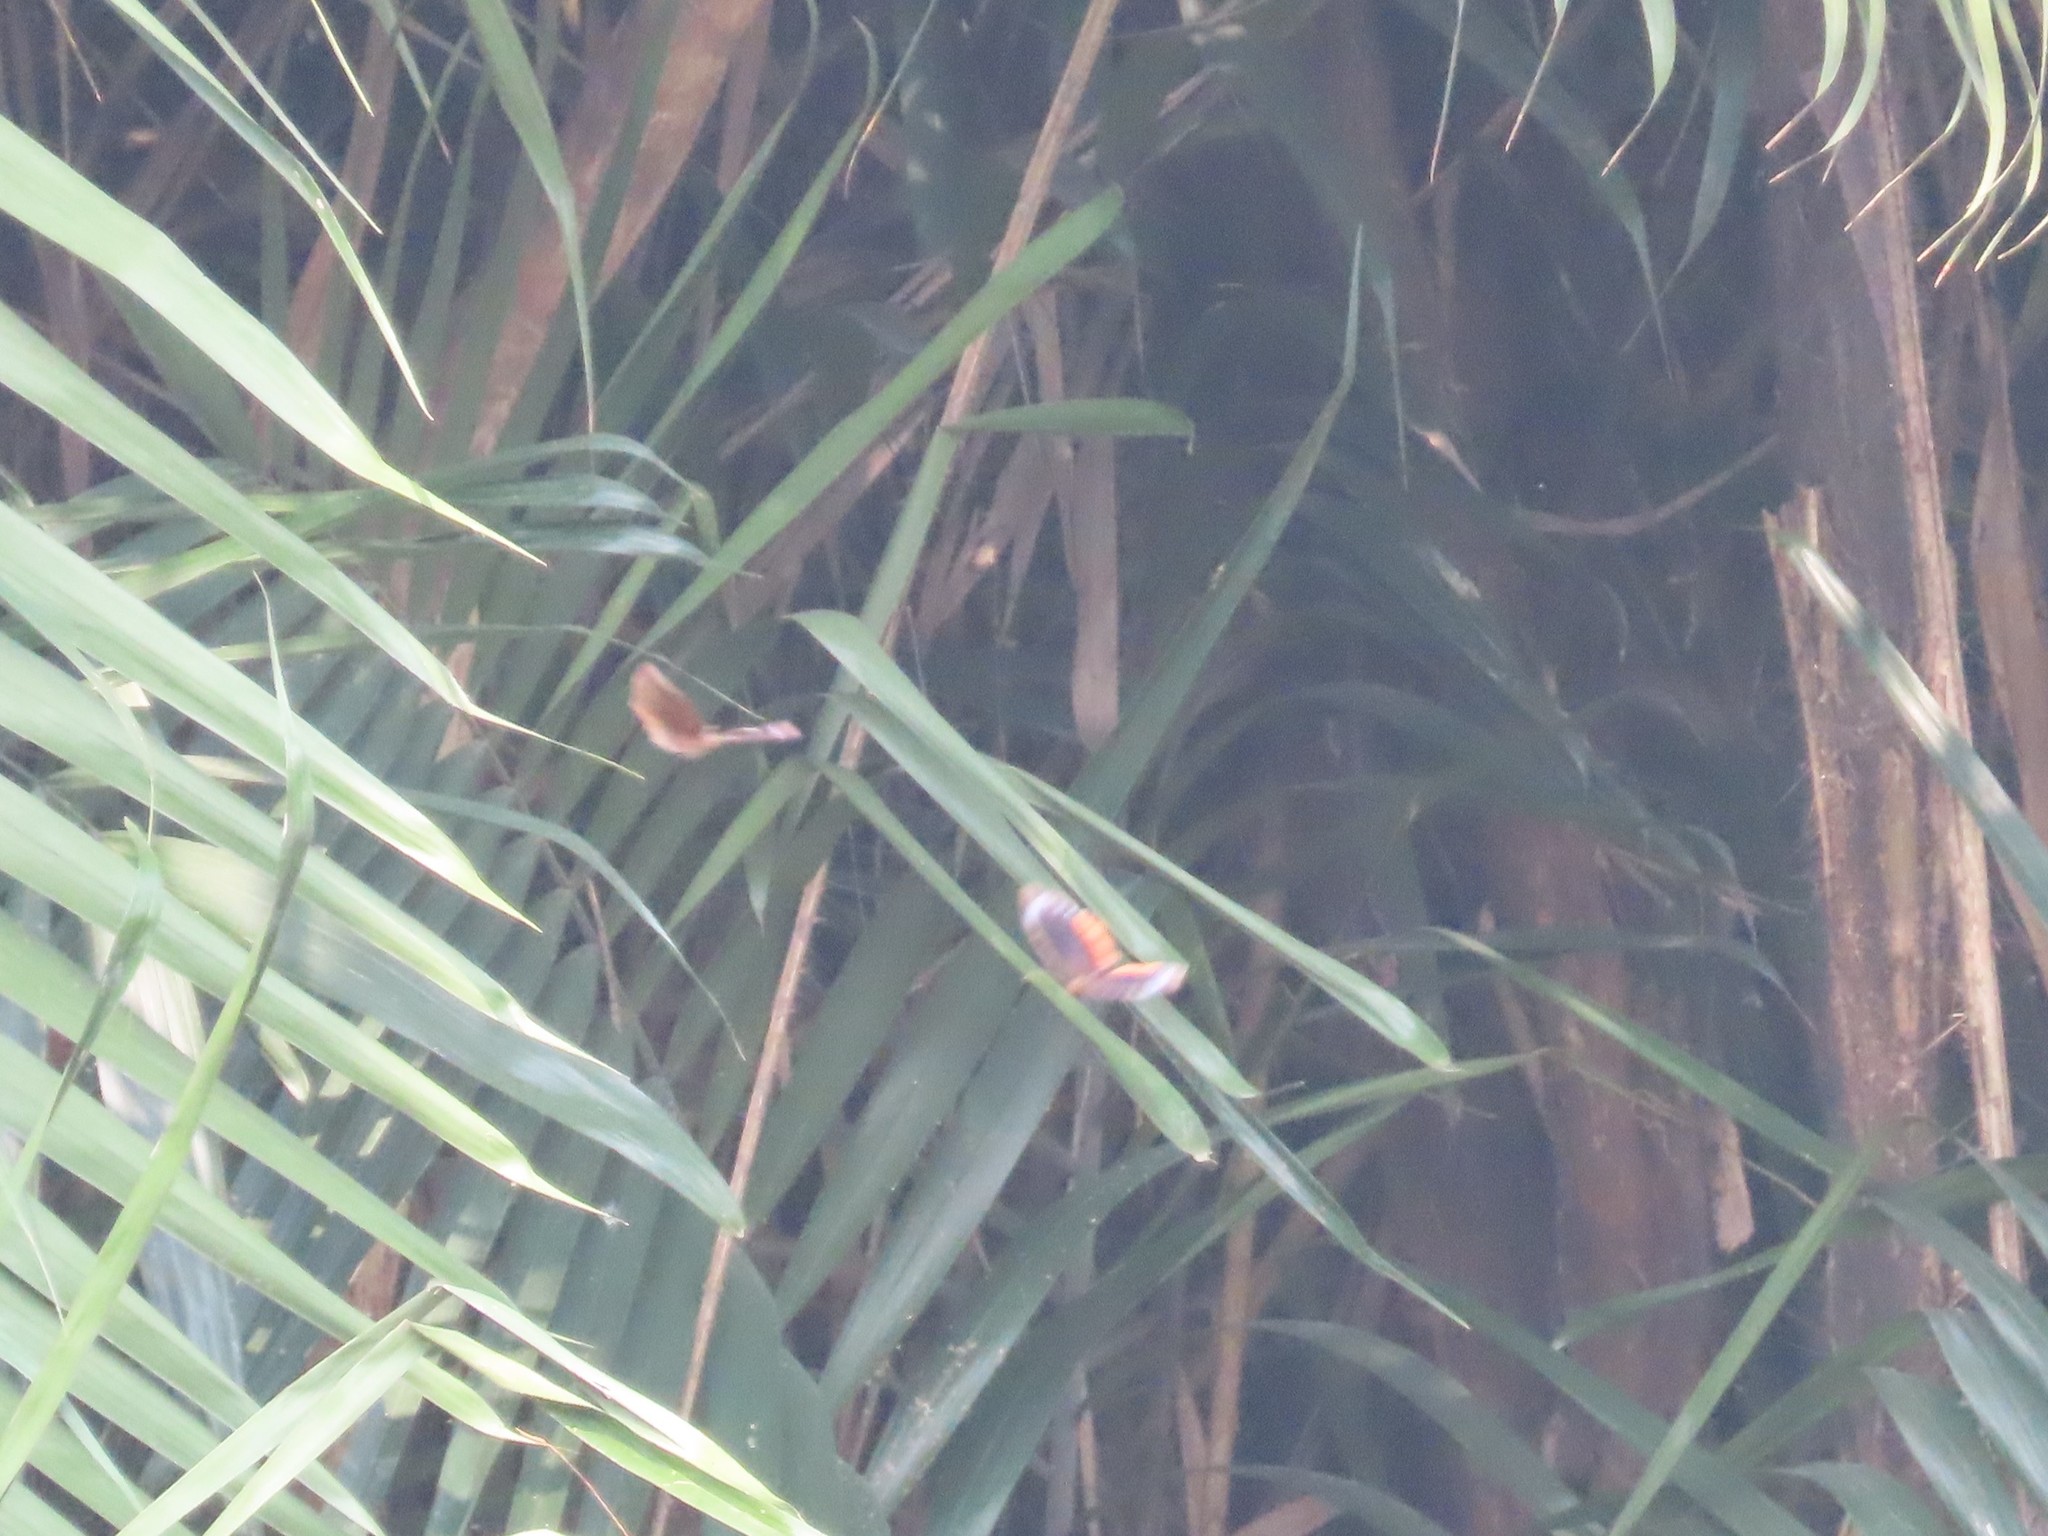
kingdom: Animalia
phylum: Arthropoda
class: Insecta
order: Lepidoptera
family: Nymphalidae
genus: Elymnias
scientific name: Elymnias hypermnestra
